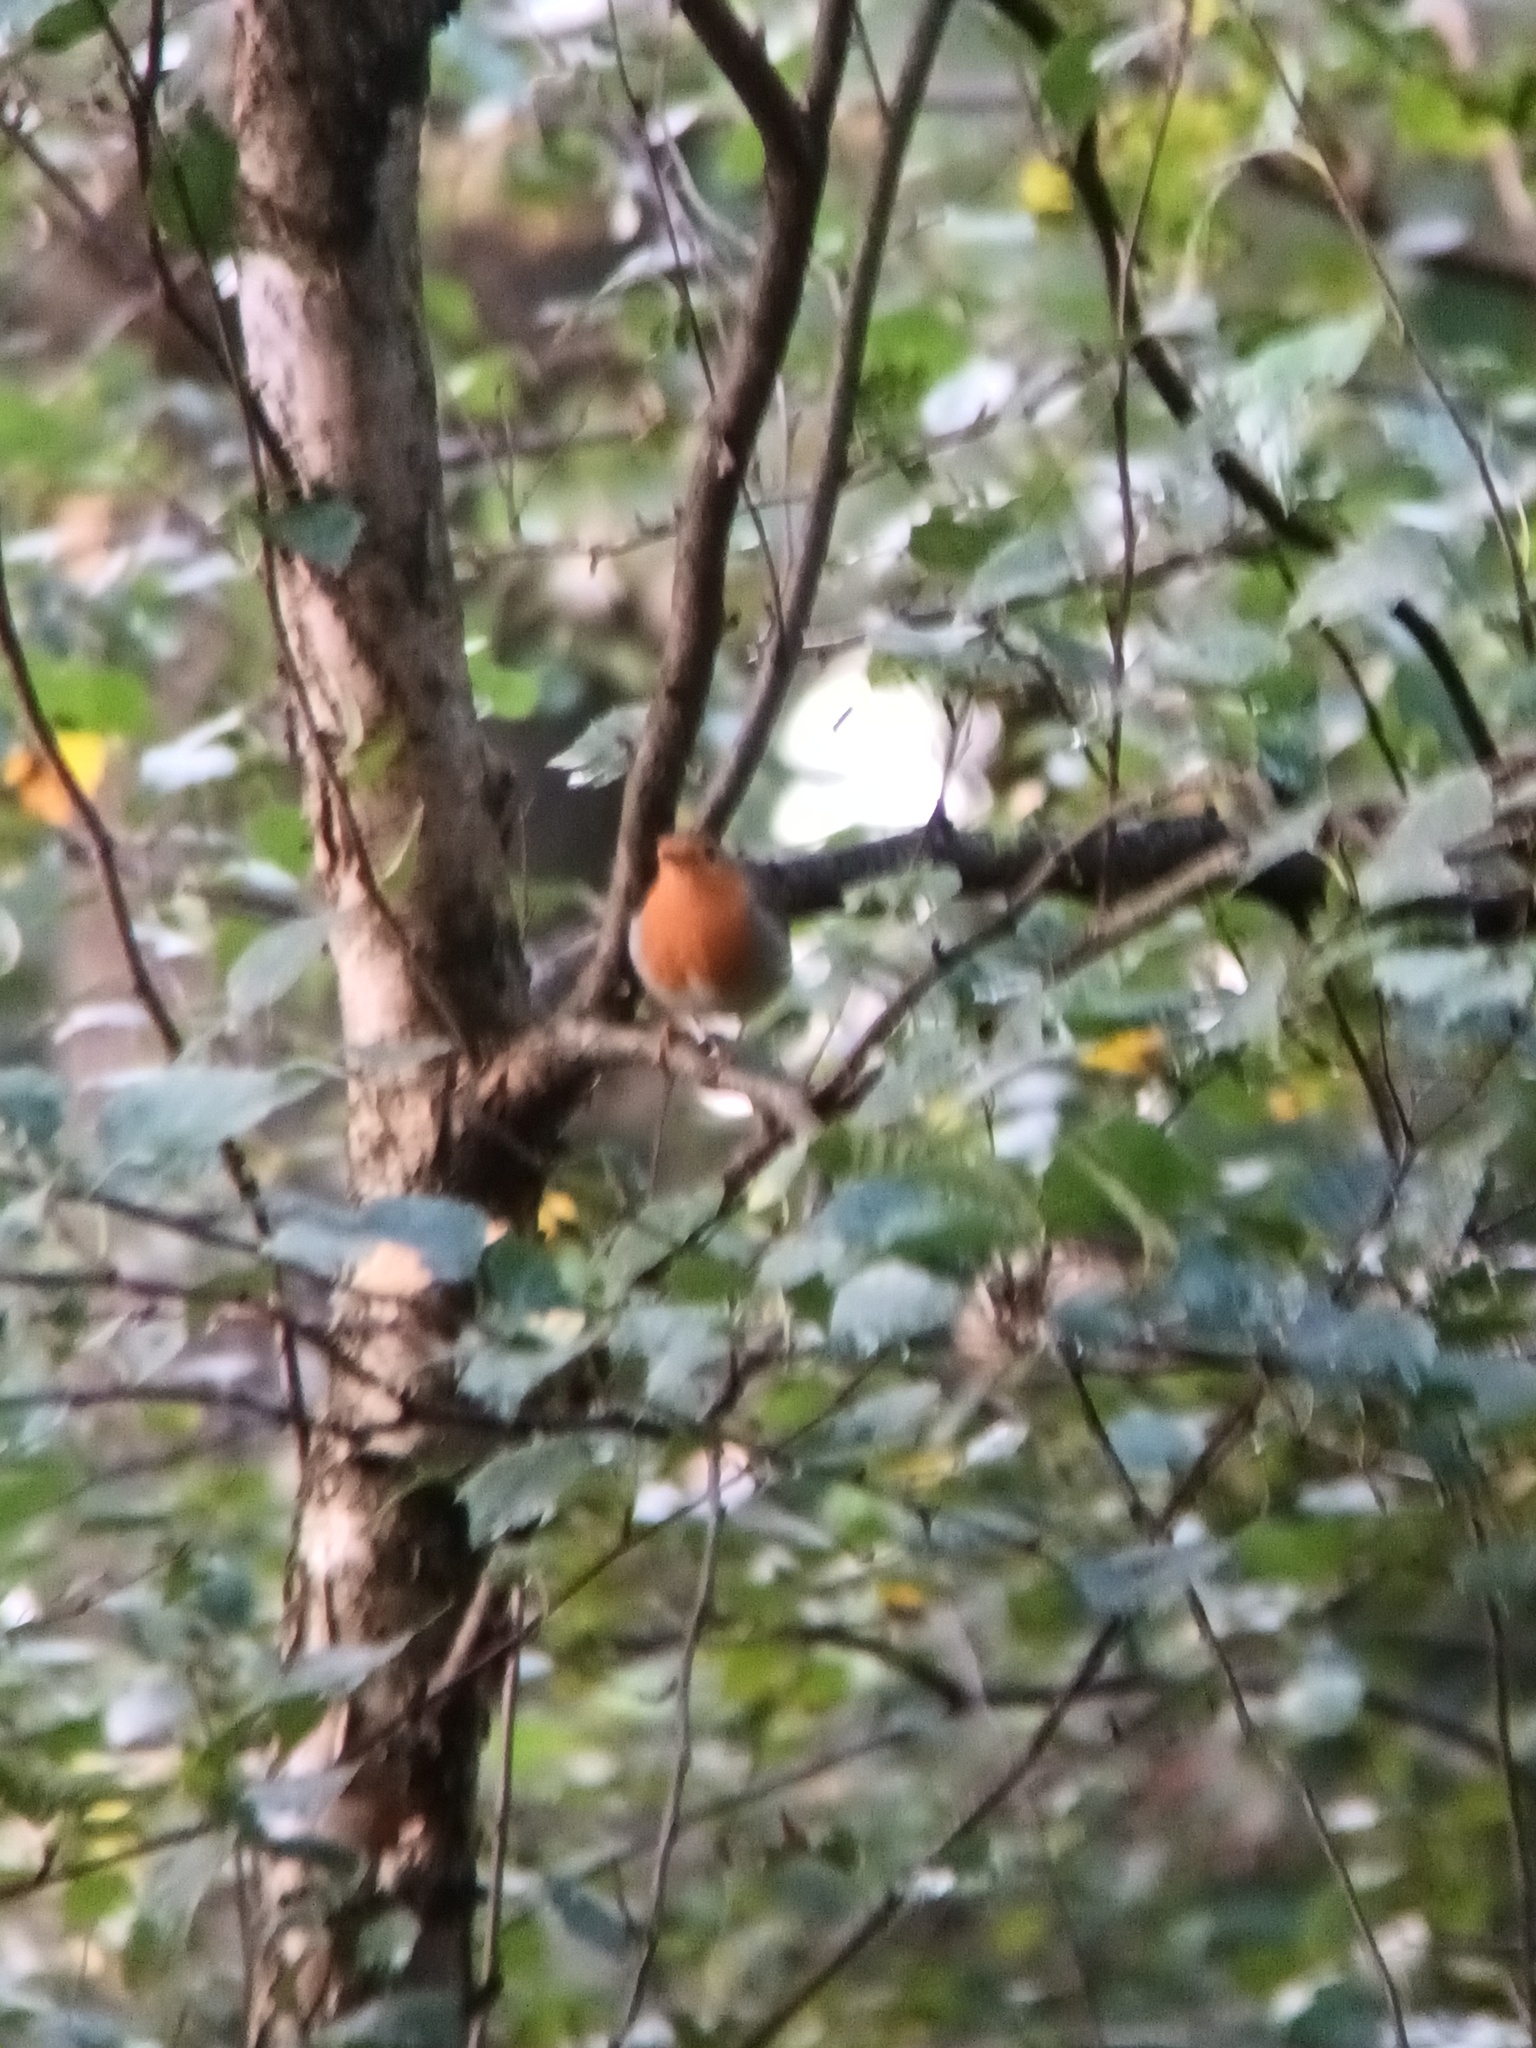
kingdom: Animalia
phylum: Chordata
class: Aves
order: Passeriformes
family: Muscicapidae
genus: Erithacus
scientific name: Erithacus rubecula
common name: European robin
